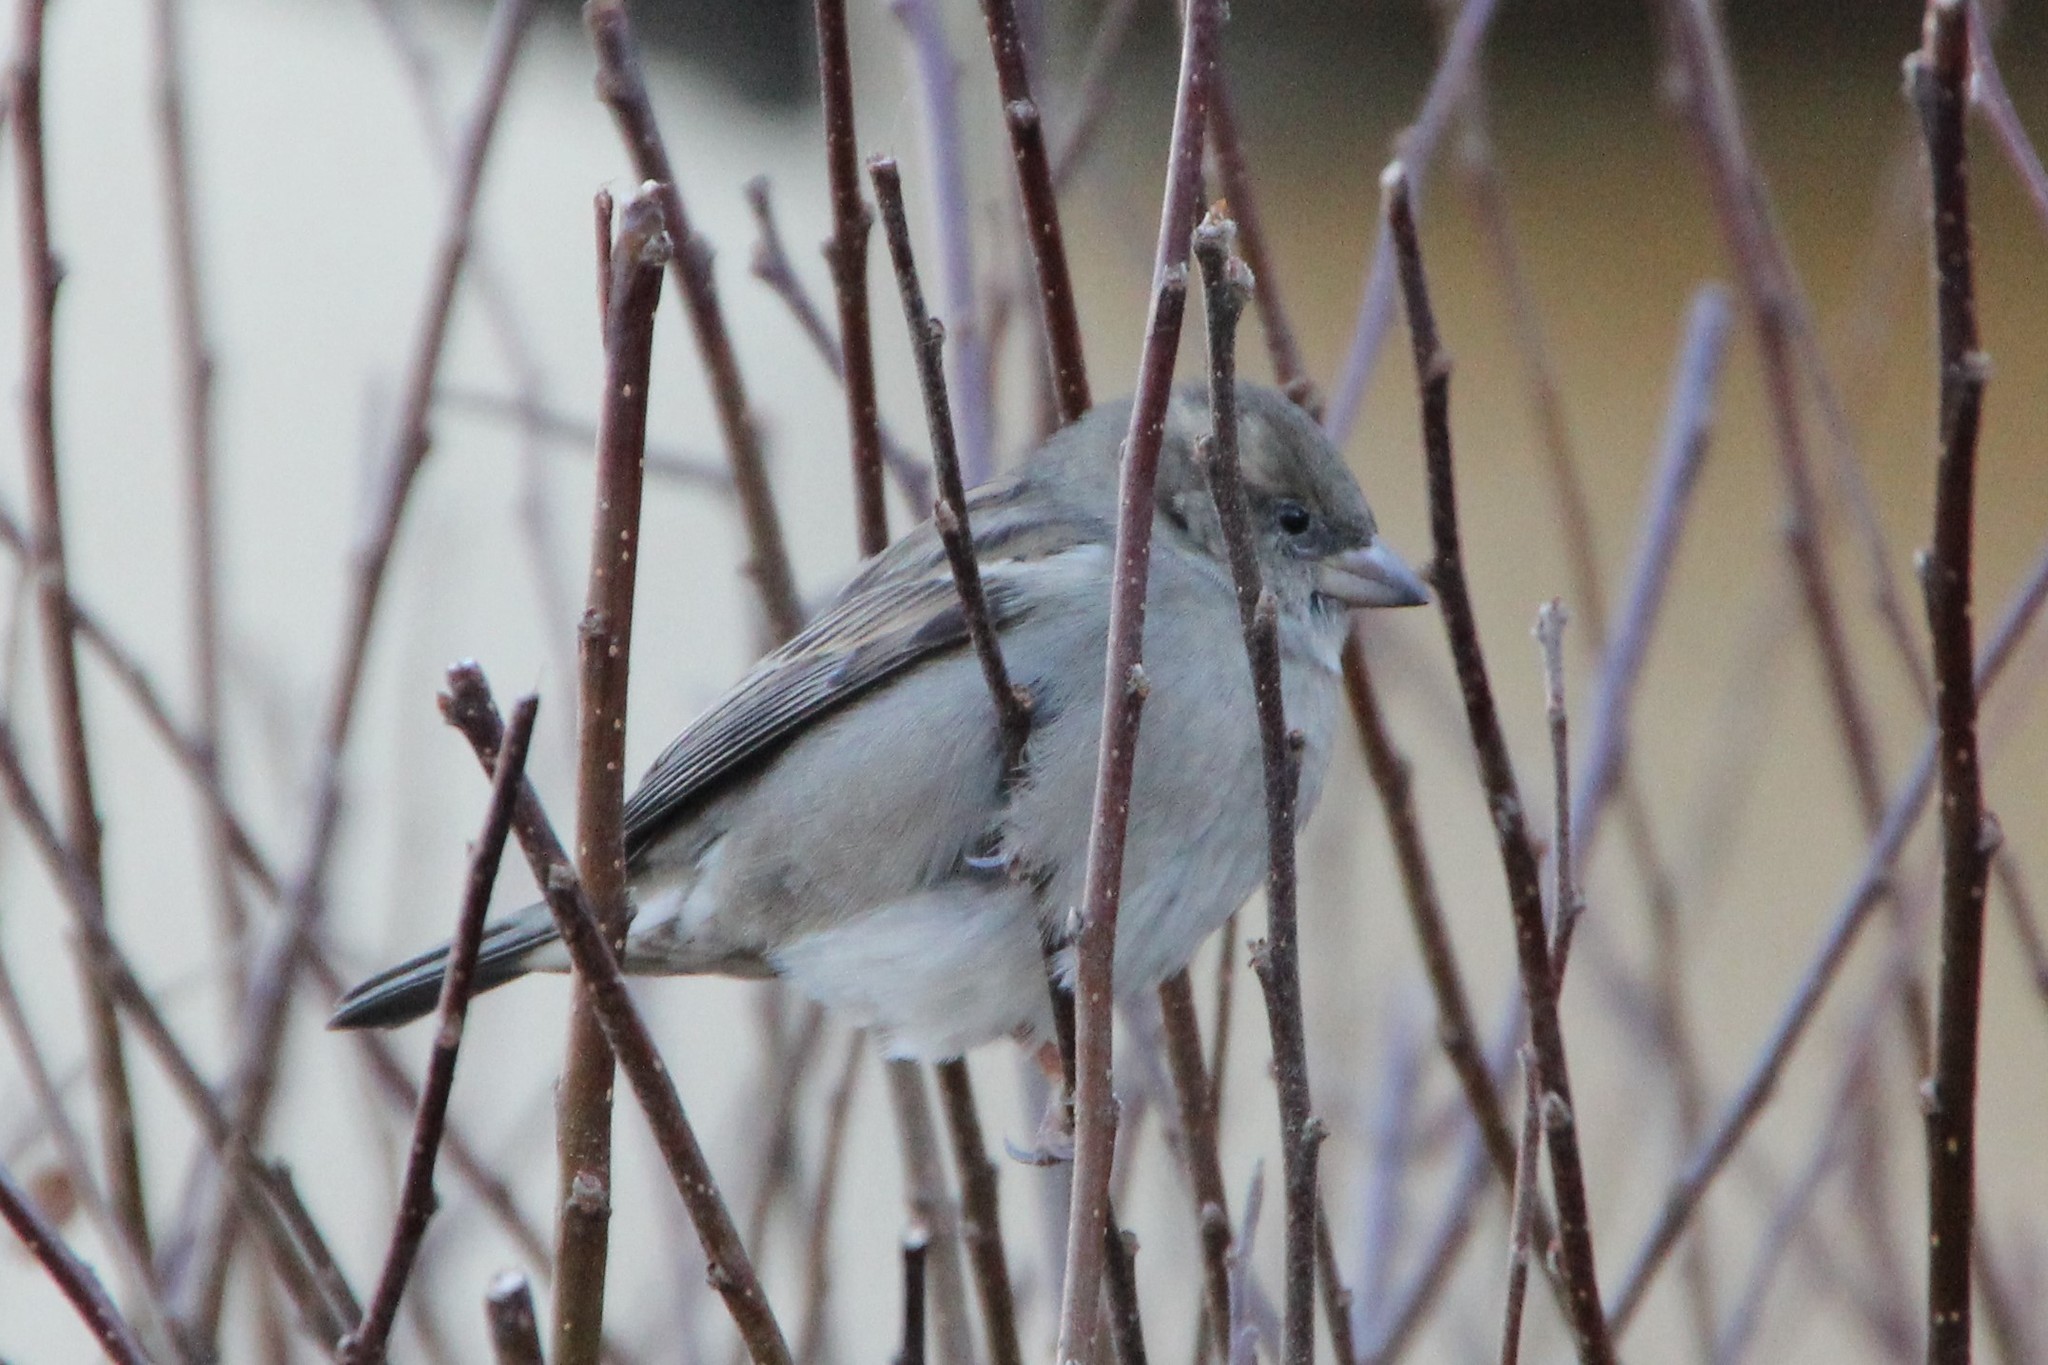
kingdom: Animalia
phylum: Chordata
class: Aves
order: Passeriformes
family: Passeridae
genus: Passer
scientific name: Passer domesticus
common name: House sparrow
